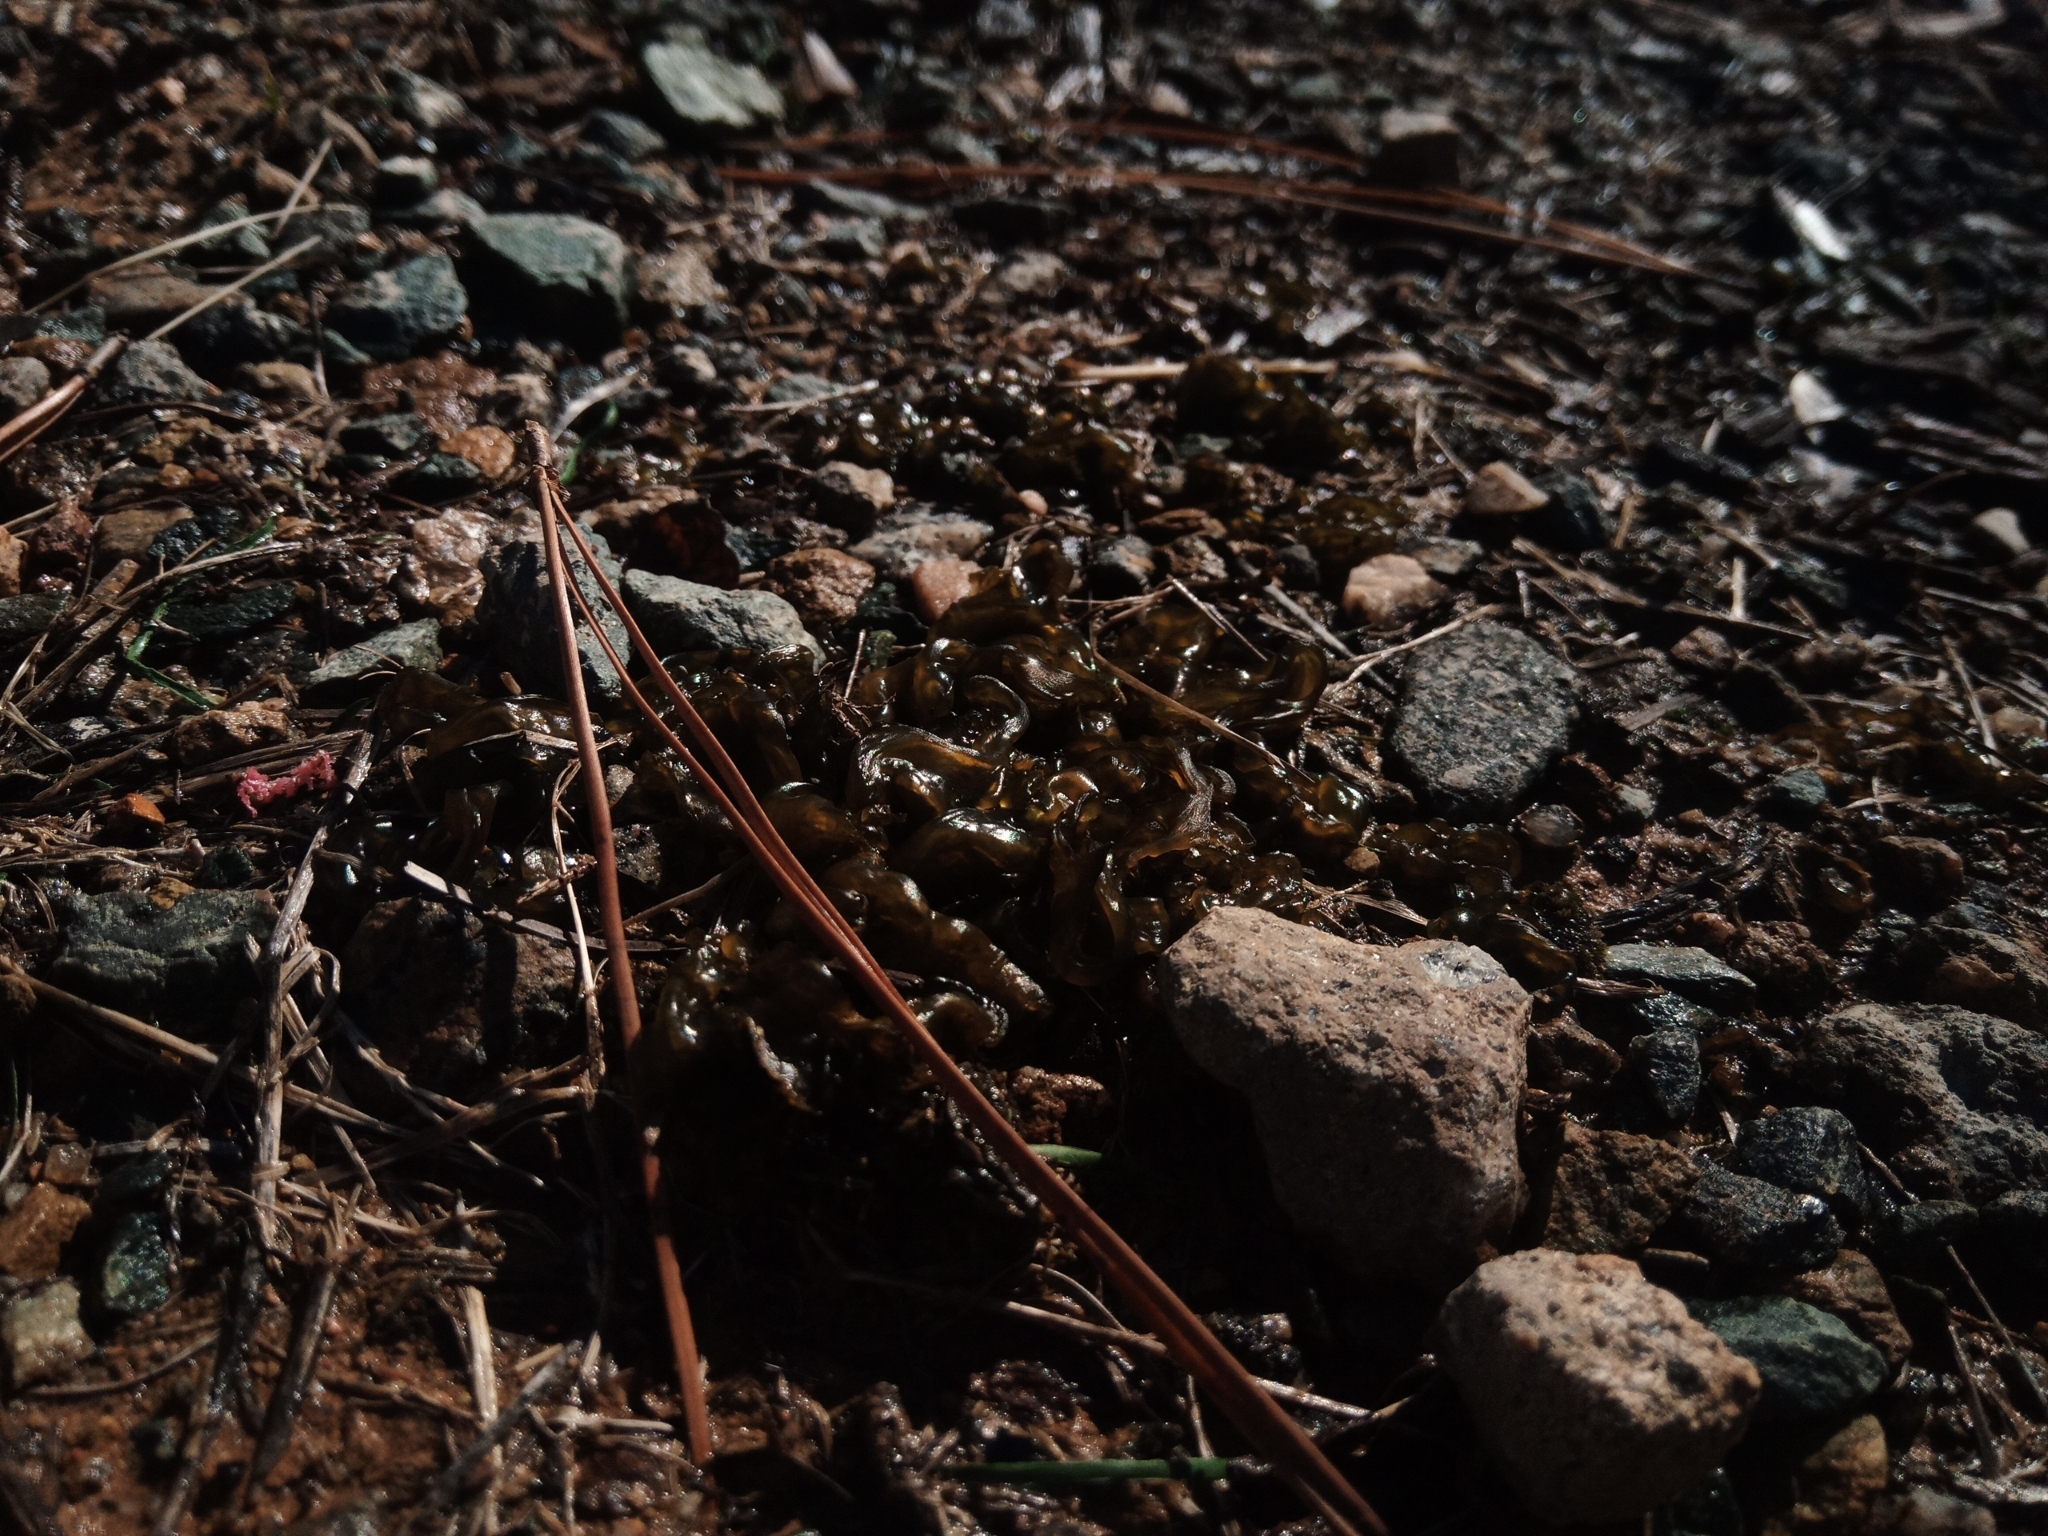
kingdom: Bacteria
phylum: Cyanobacteria
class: Cyanobacteriia
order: Cyanobacteriales
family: Nostocaceae
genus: Nostoc
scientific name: Nostoc commune
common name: Star jelly
